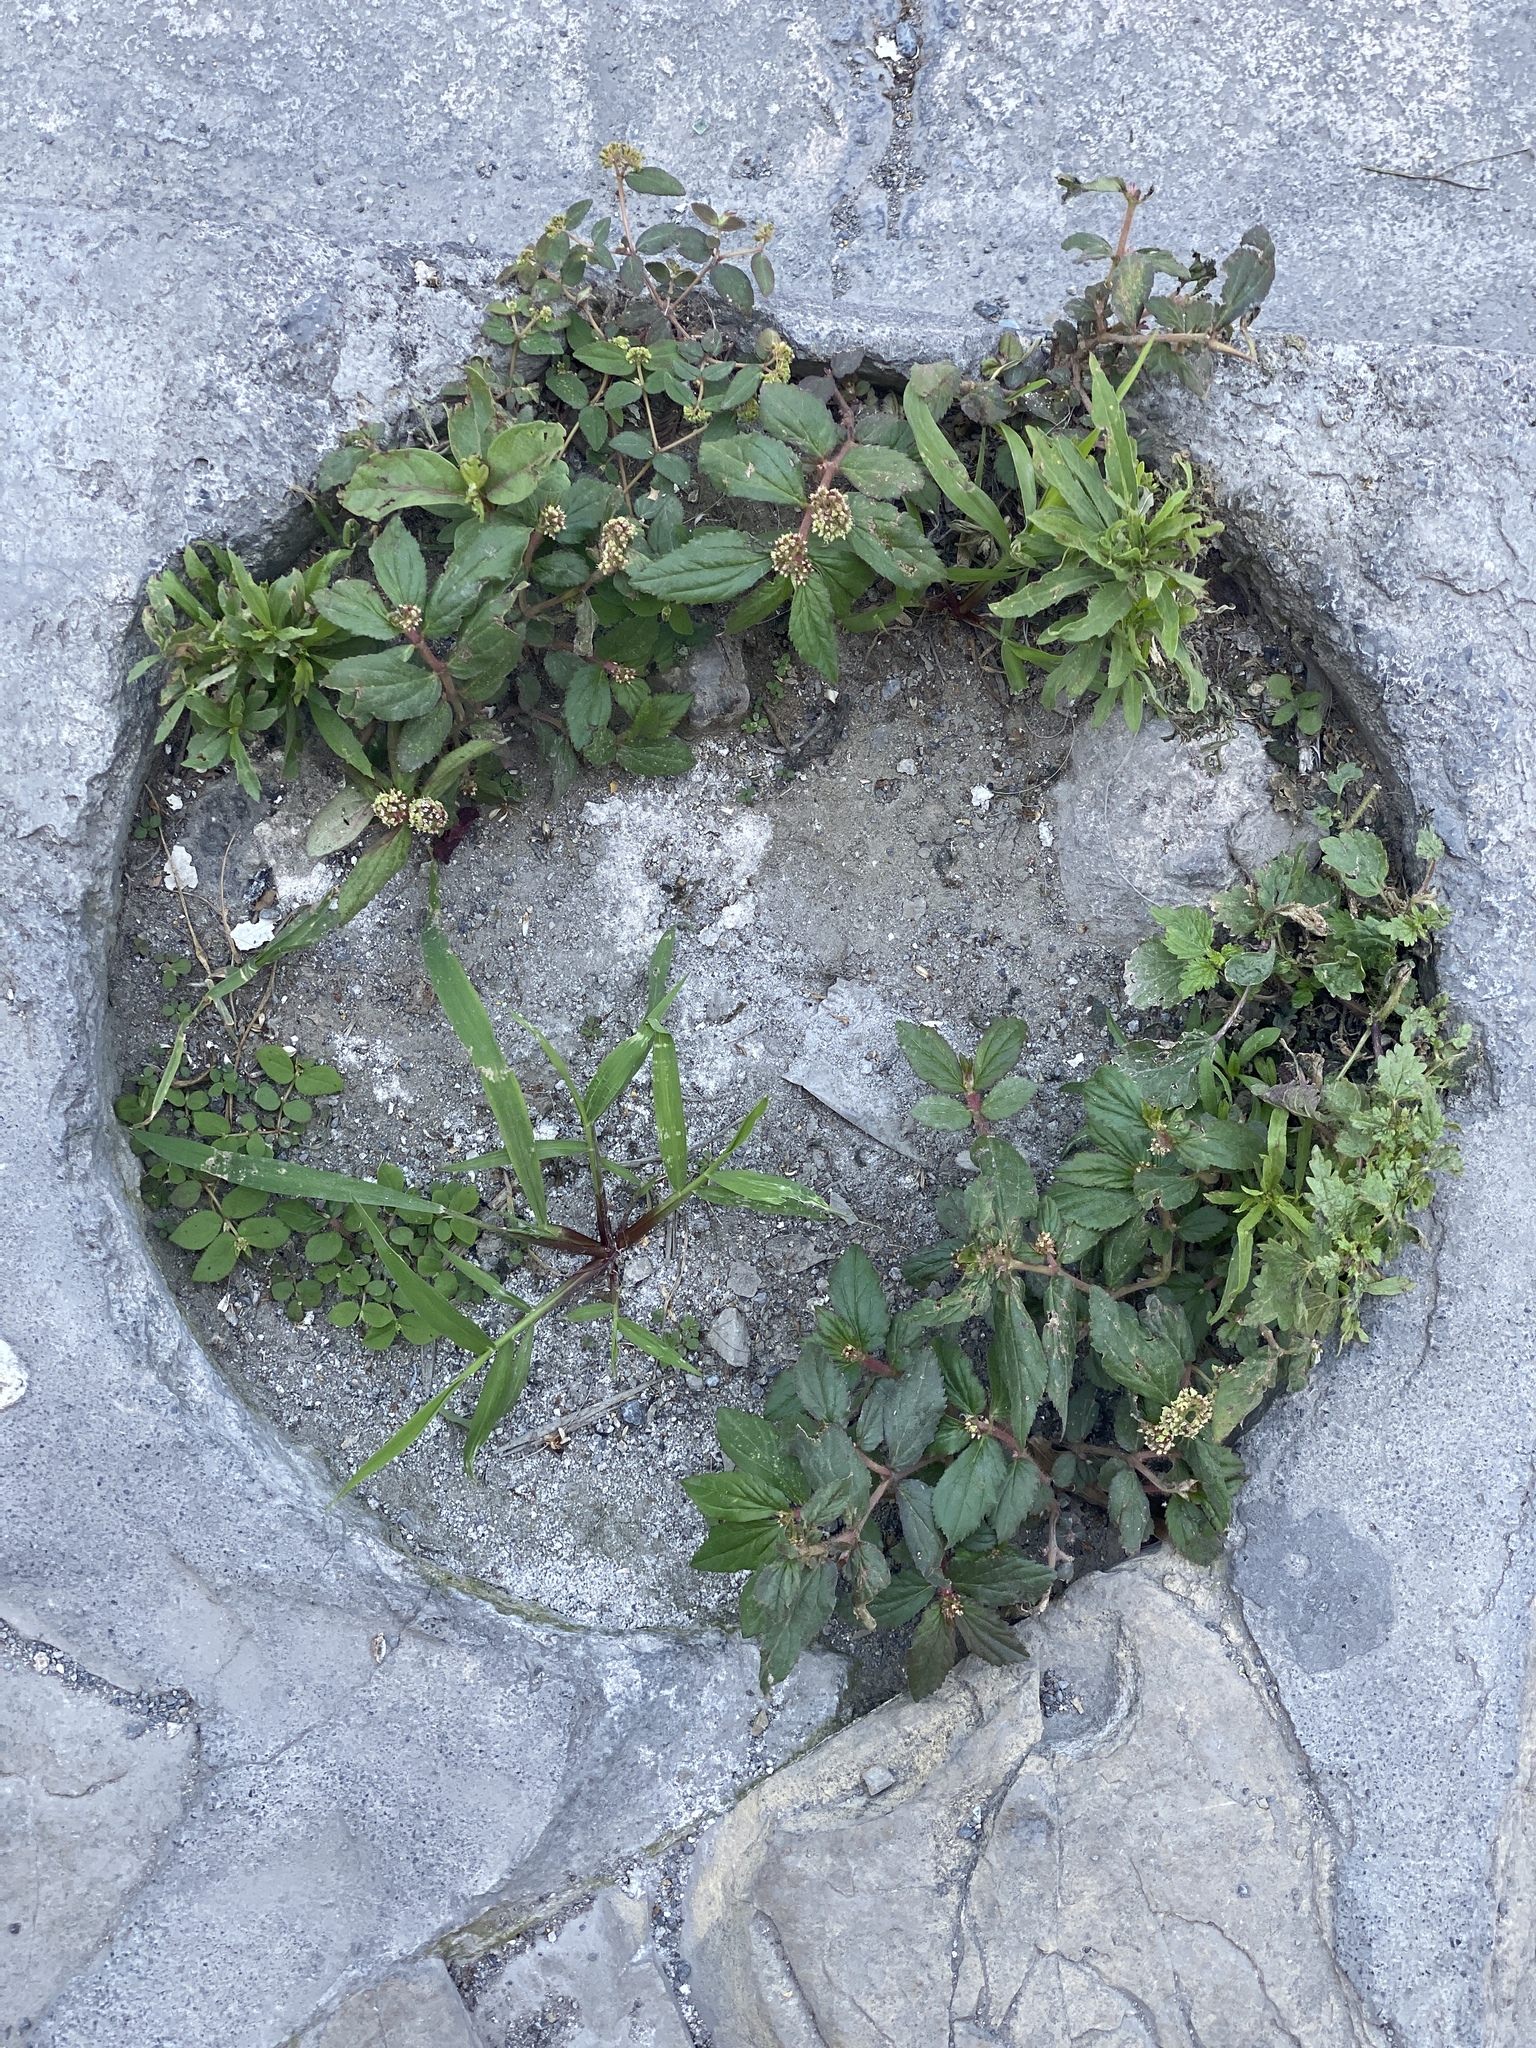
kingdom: Plantae
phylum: Tracheophyta
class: Magnoliopsida
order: Malpighiales
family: Euphorbiaceae
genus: Euphorbia
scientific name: Euphorbia hirta
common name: Pillpod sandmat
